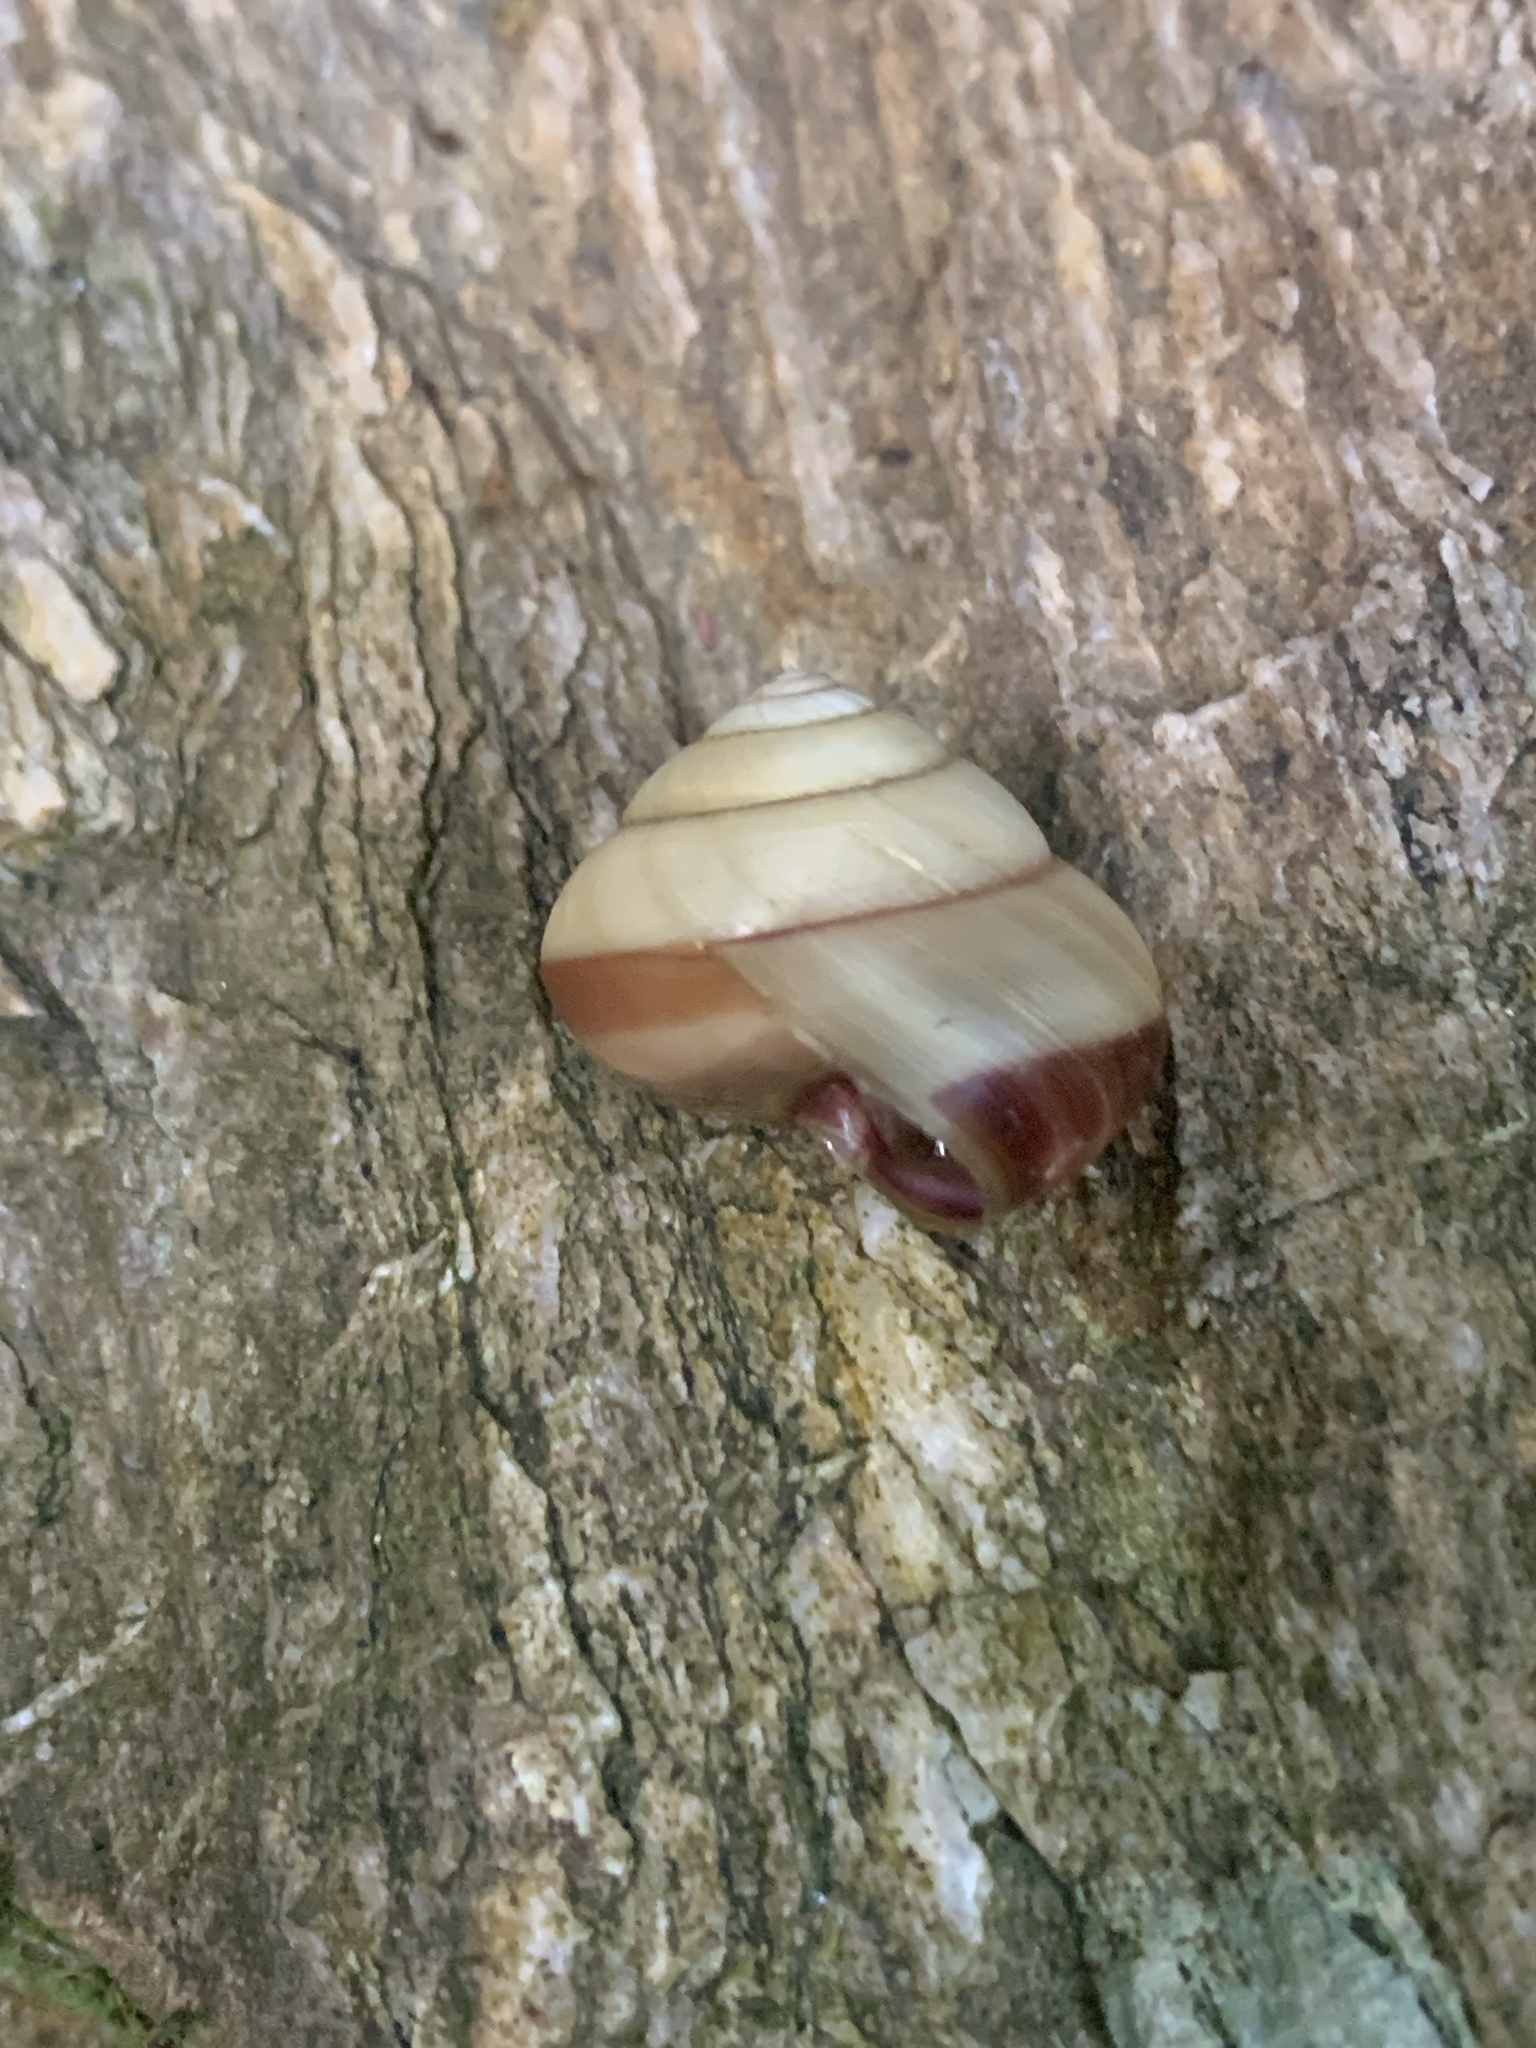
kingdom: Animalia
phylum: Mollusca
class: Gastropoda
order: Stylommatophora
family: Camaenidae
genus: Euhadra
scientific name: Euhadra dixoni
